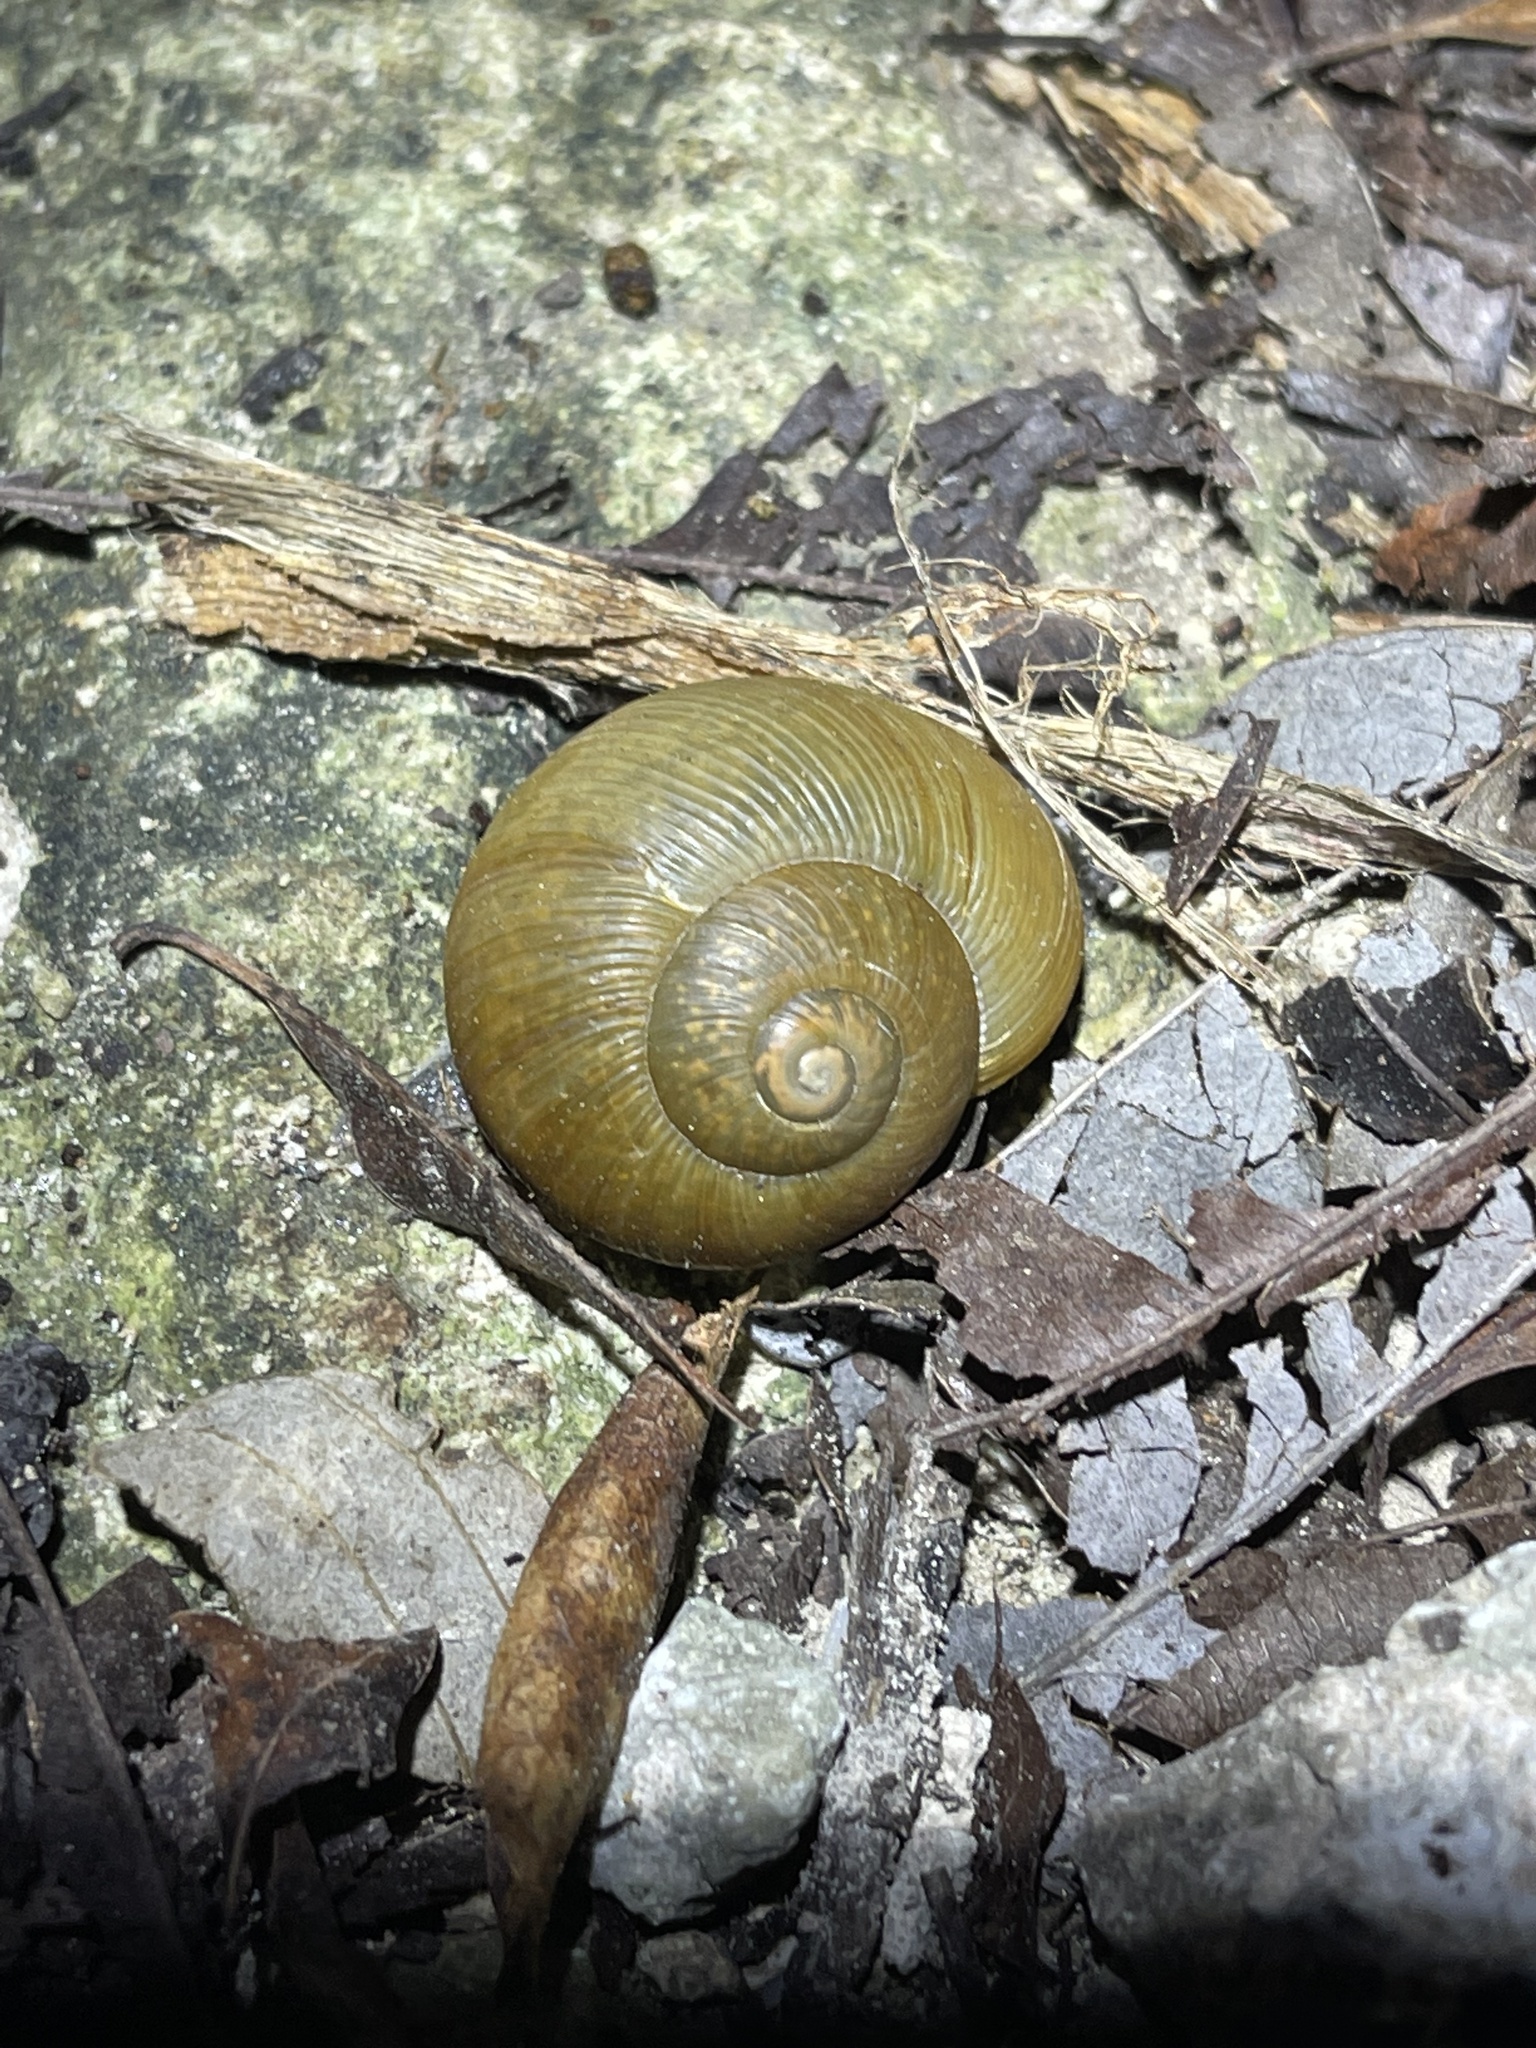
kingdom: Animalia
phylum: Mollusca
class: Gastropoda
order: Stylommatophora
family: Zachrysiidae
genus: Zachrysia
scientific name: Zachrysia provisoria
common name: Garden zachrysia
